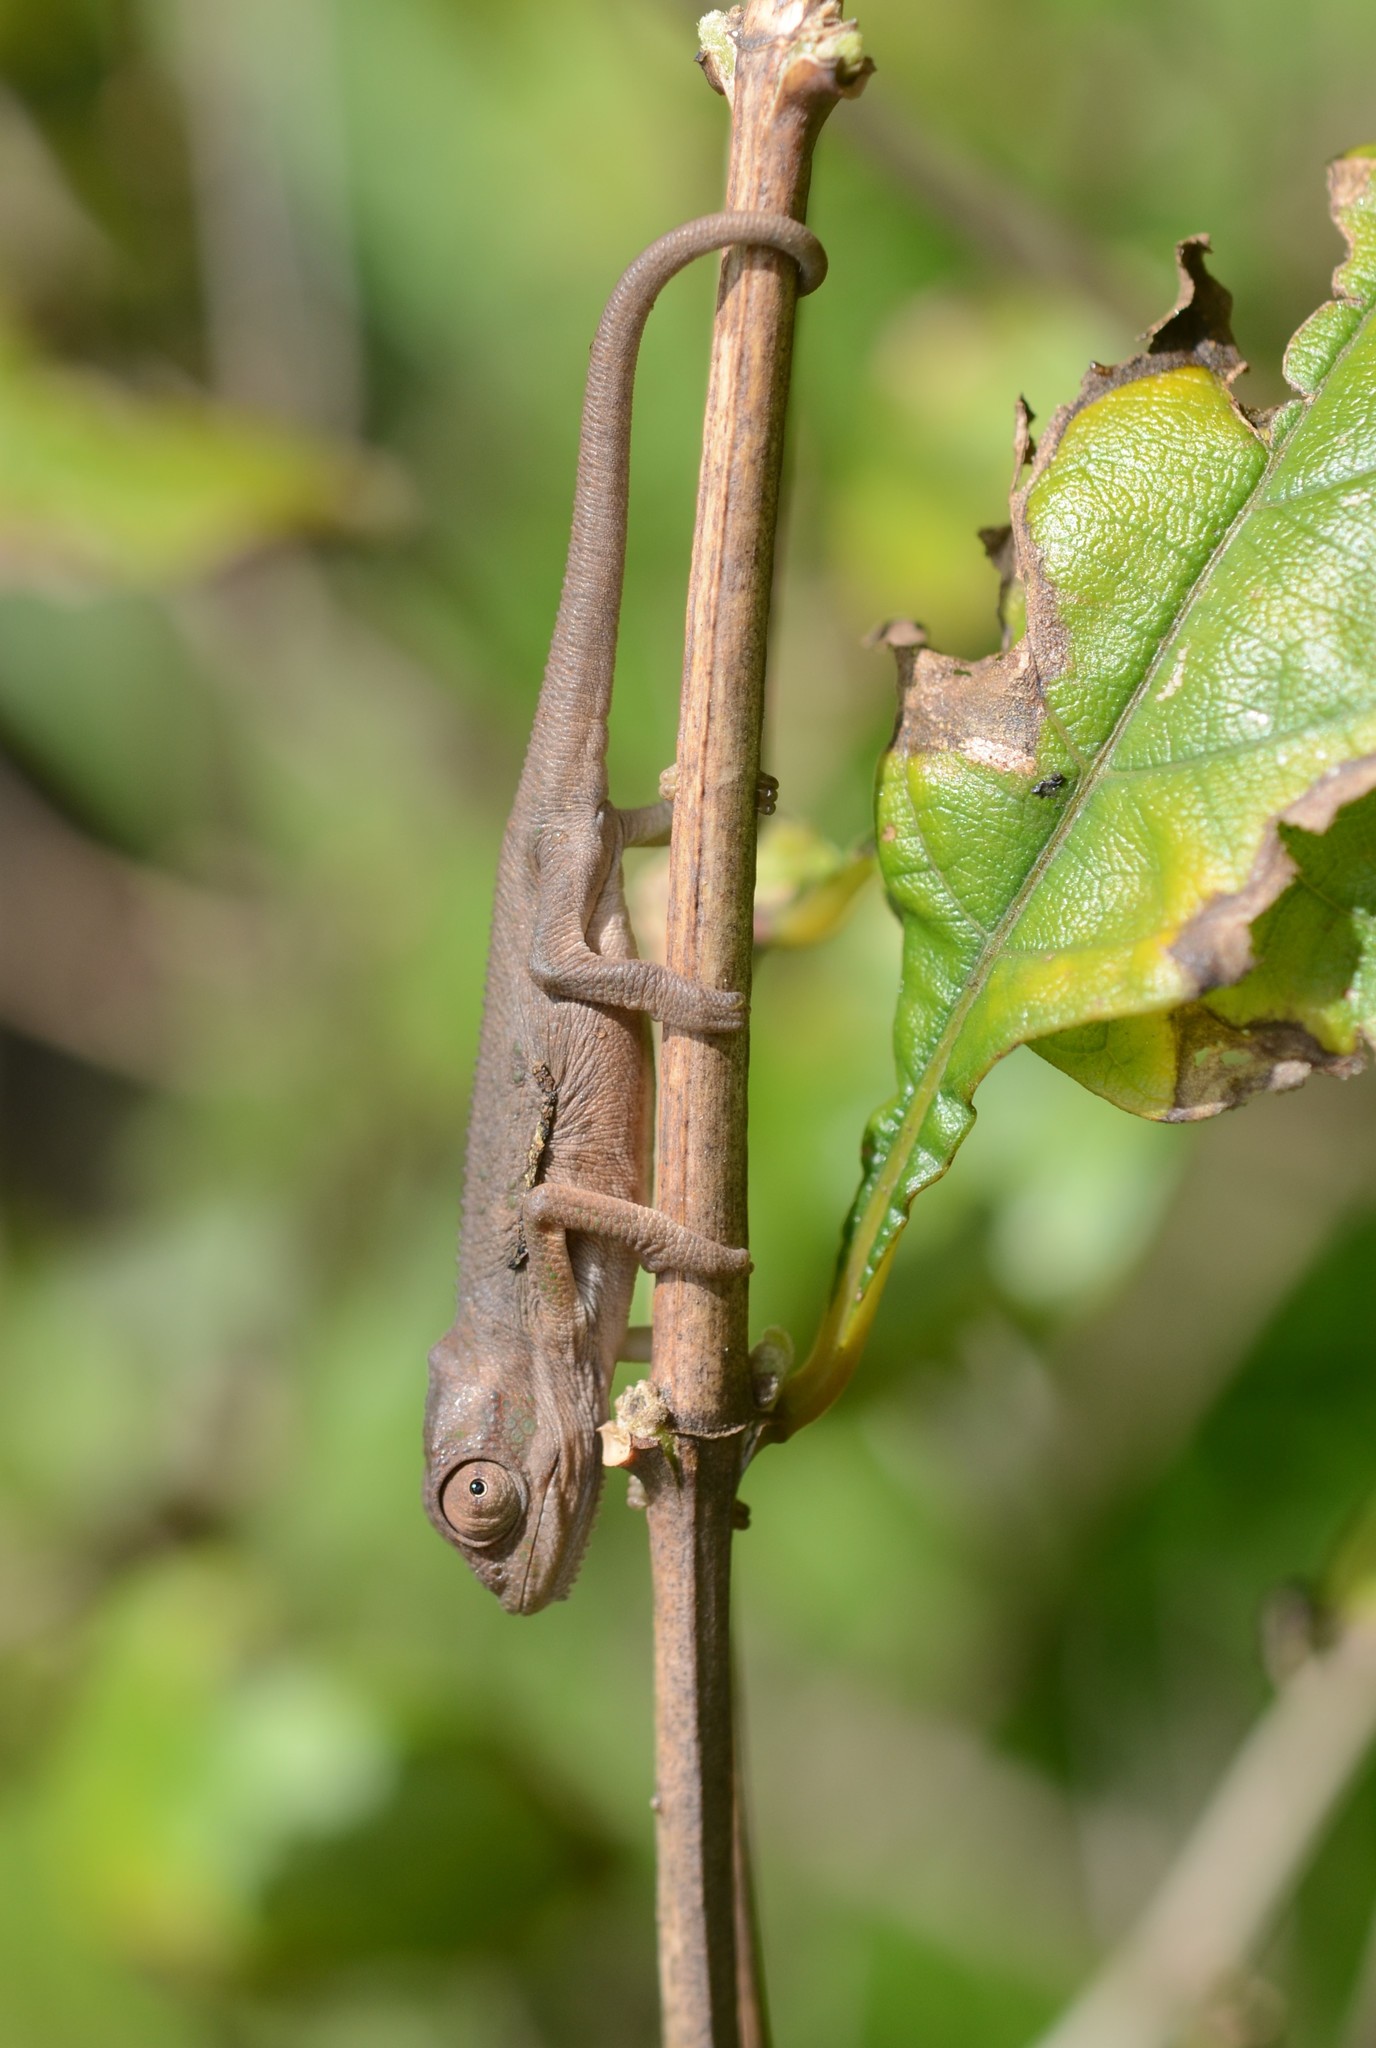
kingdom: Animalia
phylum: Chordata
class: Squamata
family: Chamaeleonidae
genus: Bradypodion
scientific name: Bradypodion pumilum
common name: Cape dwarf chameleon
